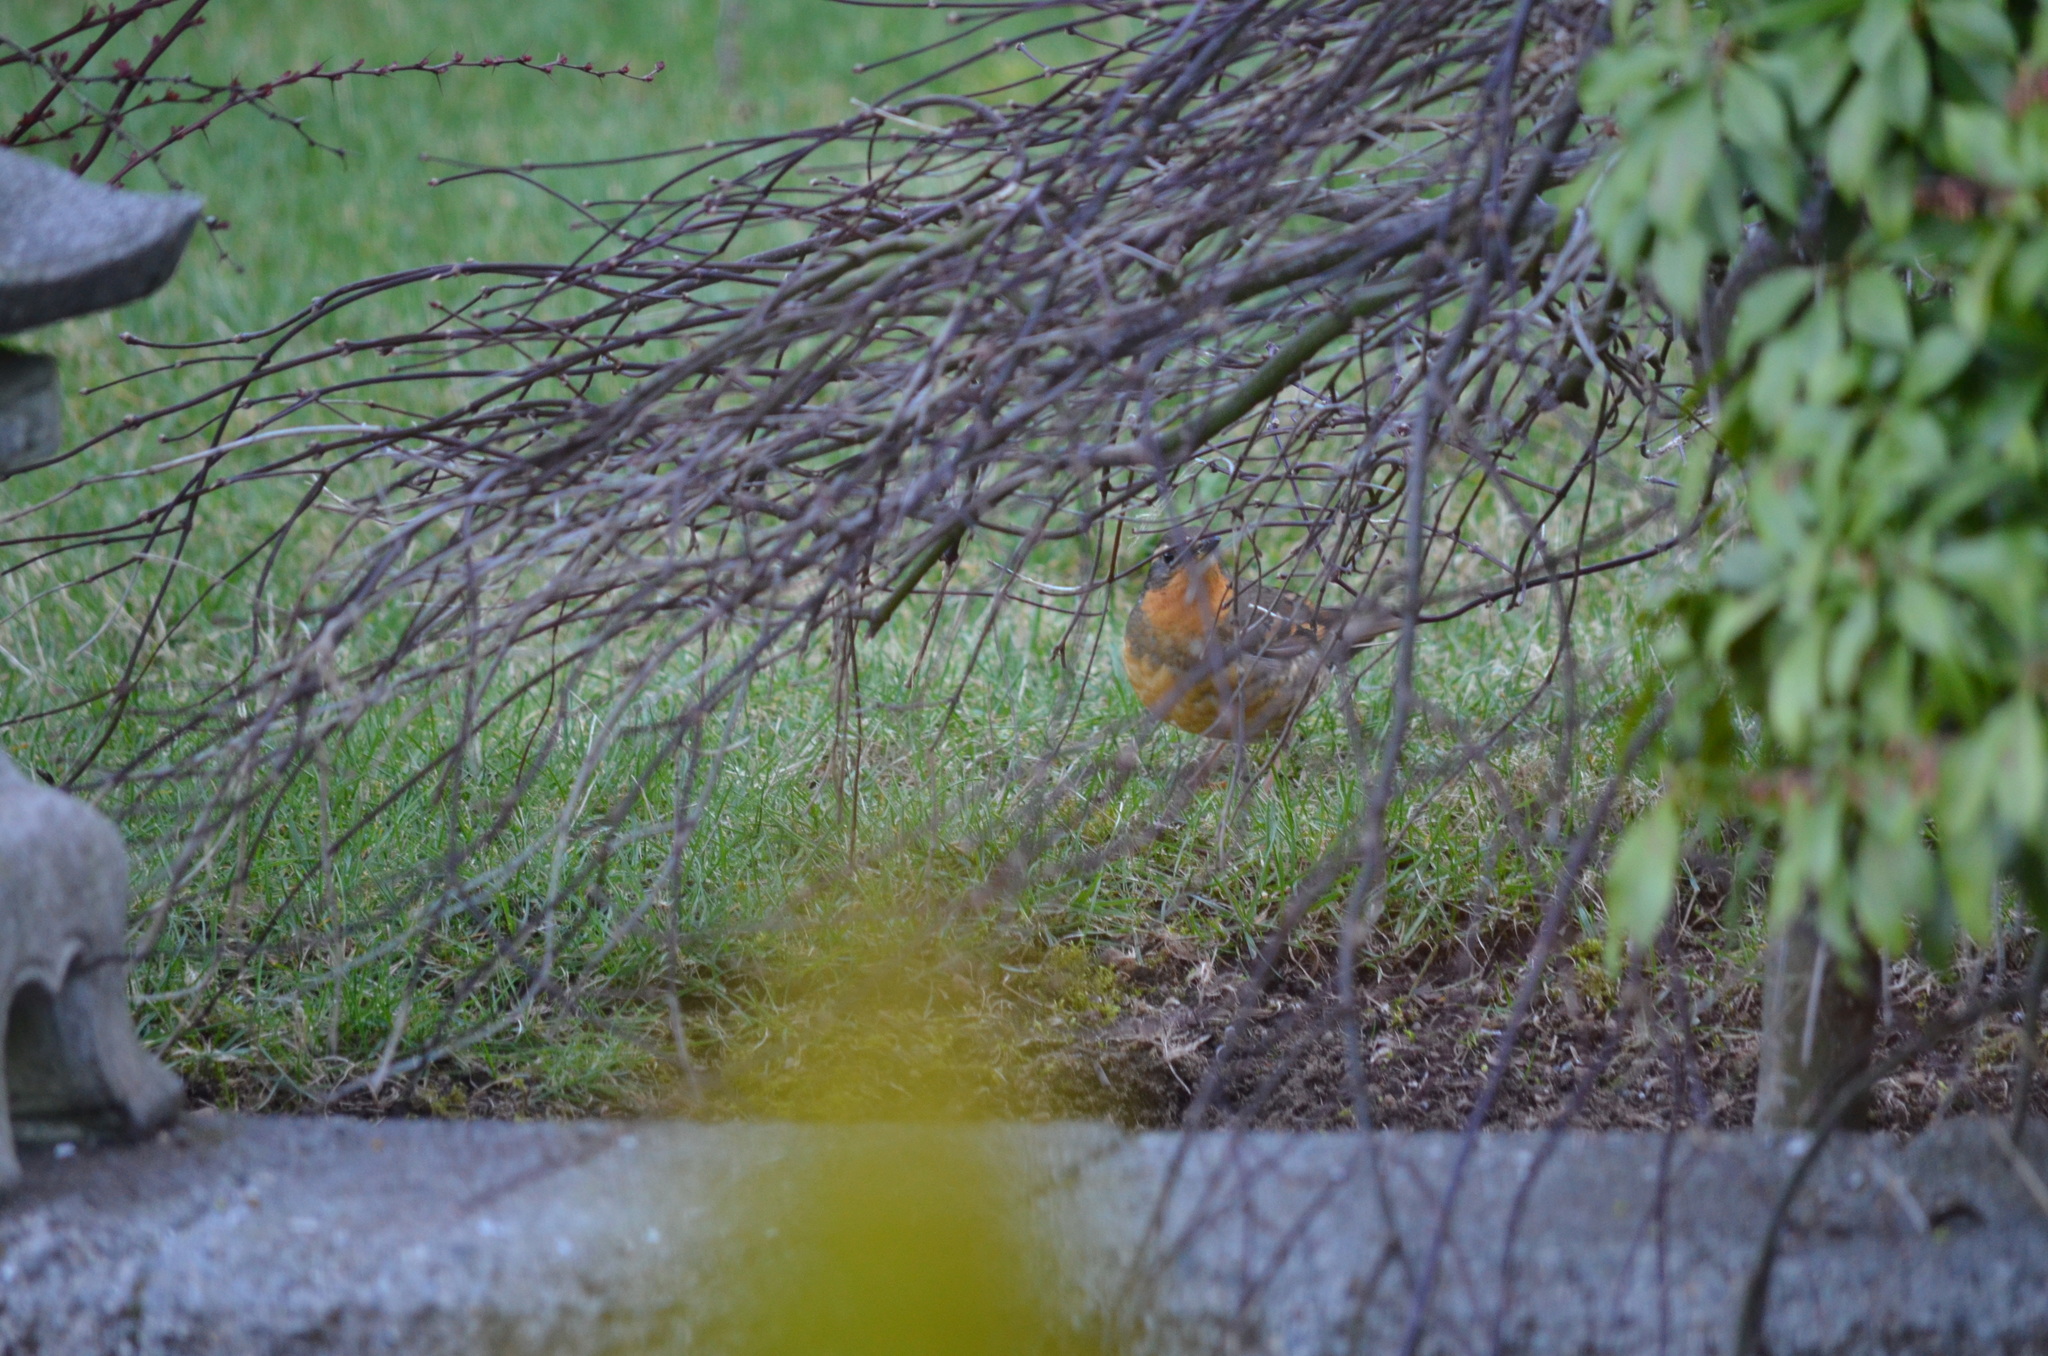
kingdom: Animalia
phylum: Chordata
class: Aves
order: Passeriformes
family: Turdidae
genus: Ixoreus
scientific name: Ixoreus naevius
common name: Varied thrush
